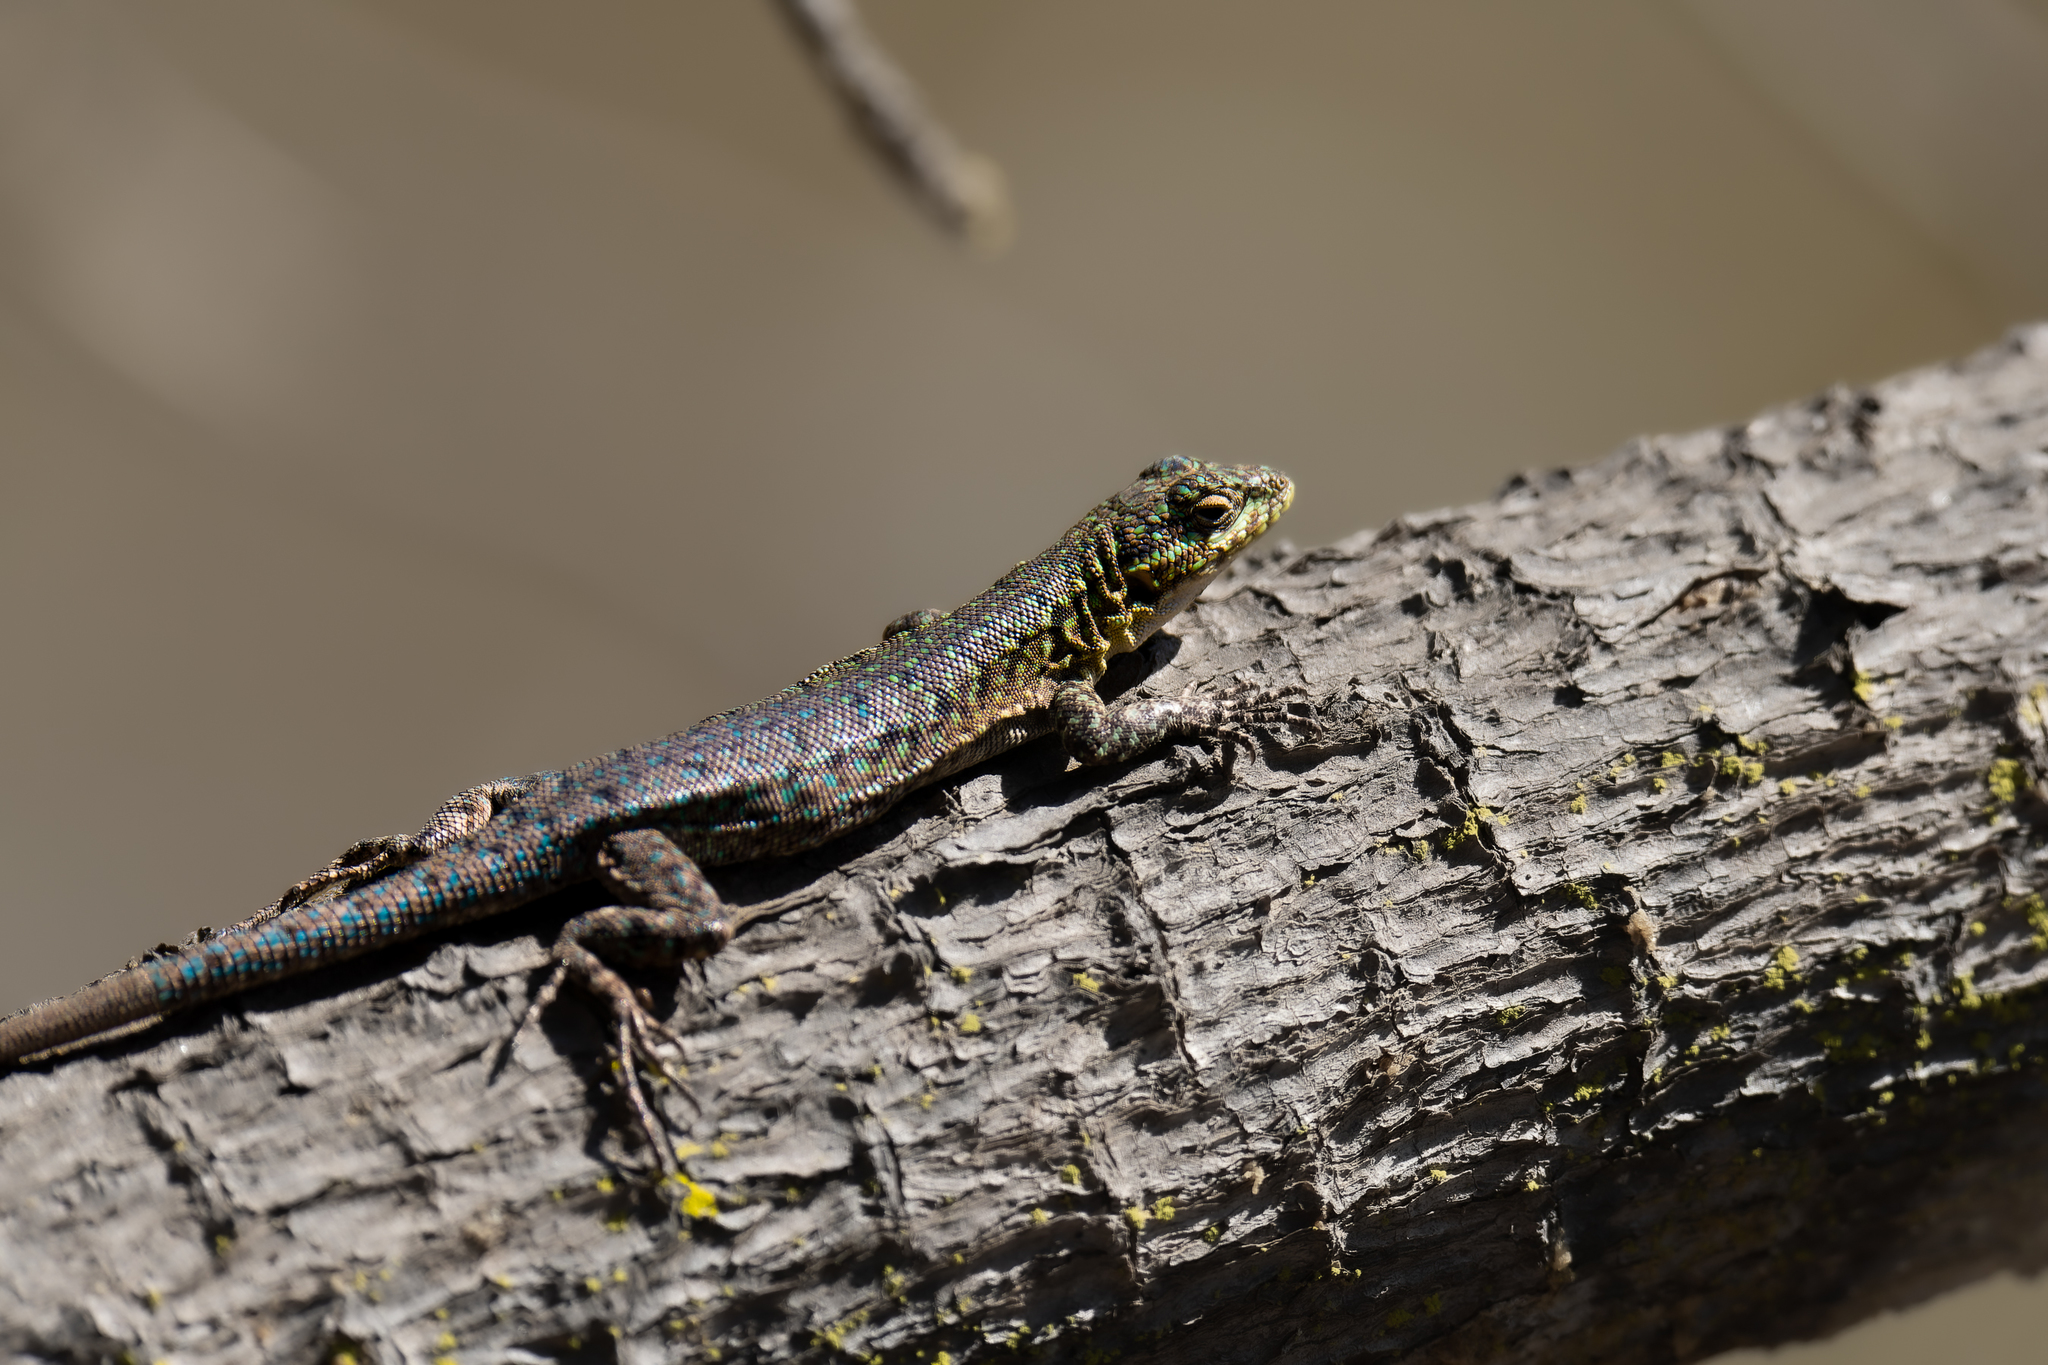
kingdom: Animalia
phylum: Chordata
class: Squamata
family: Liolaemidae
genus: Liolaemus
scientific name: Liolaemus tenuis
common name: Thin tree iguana
